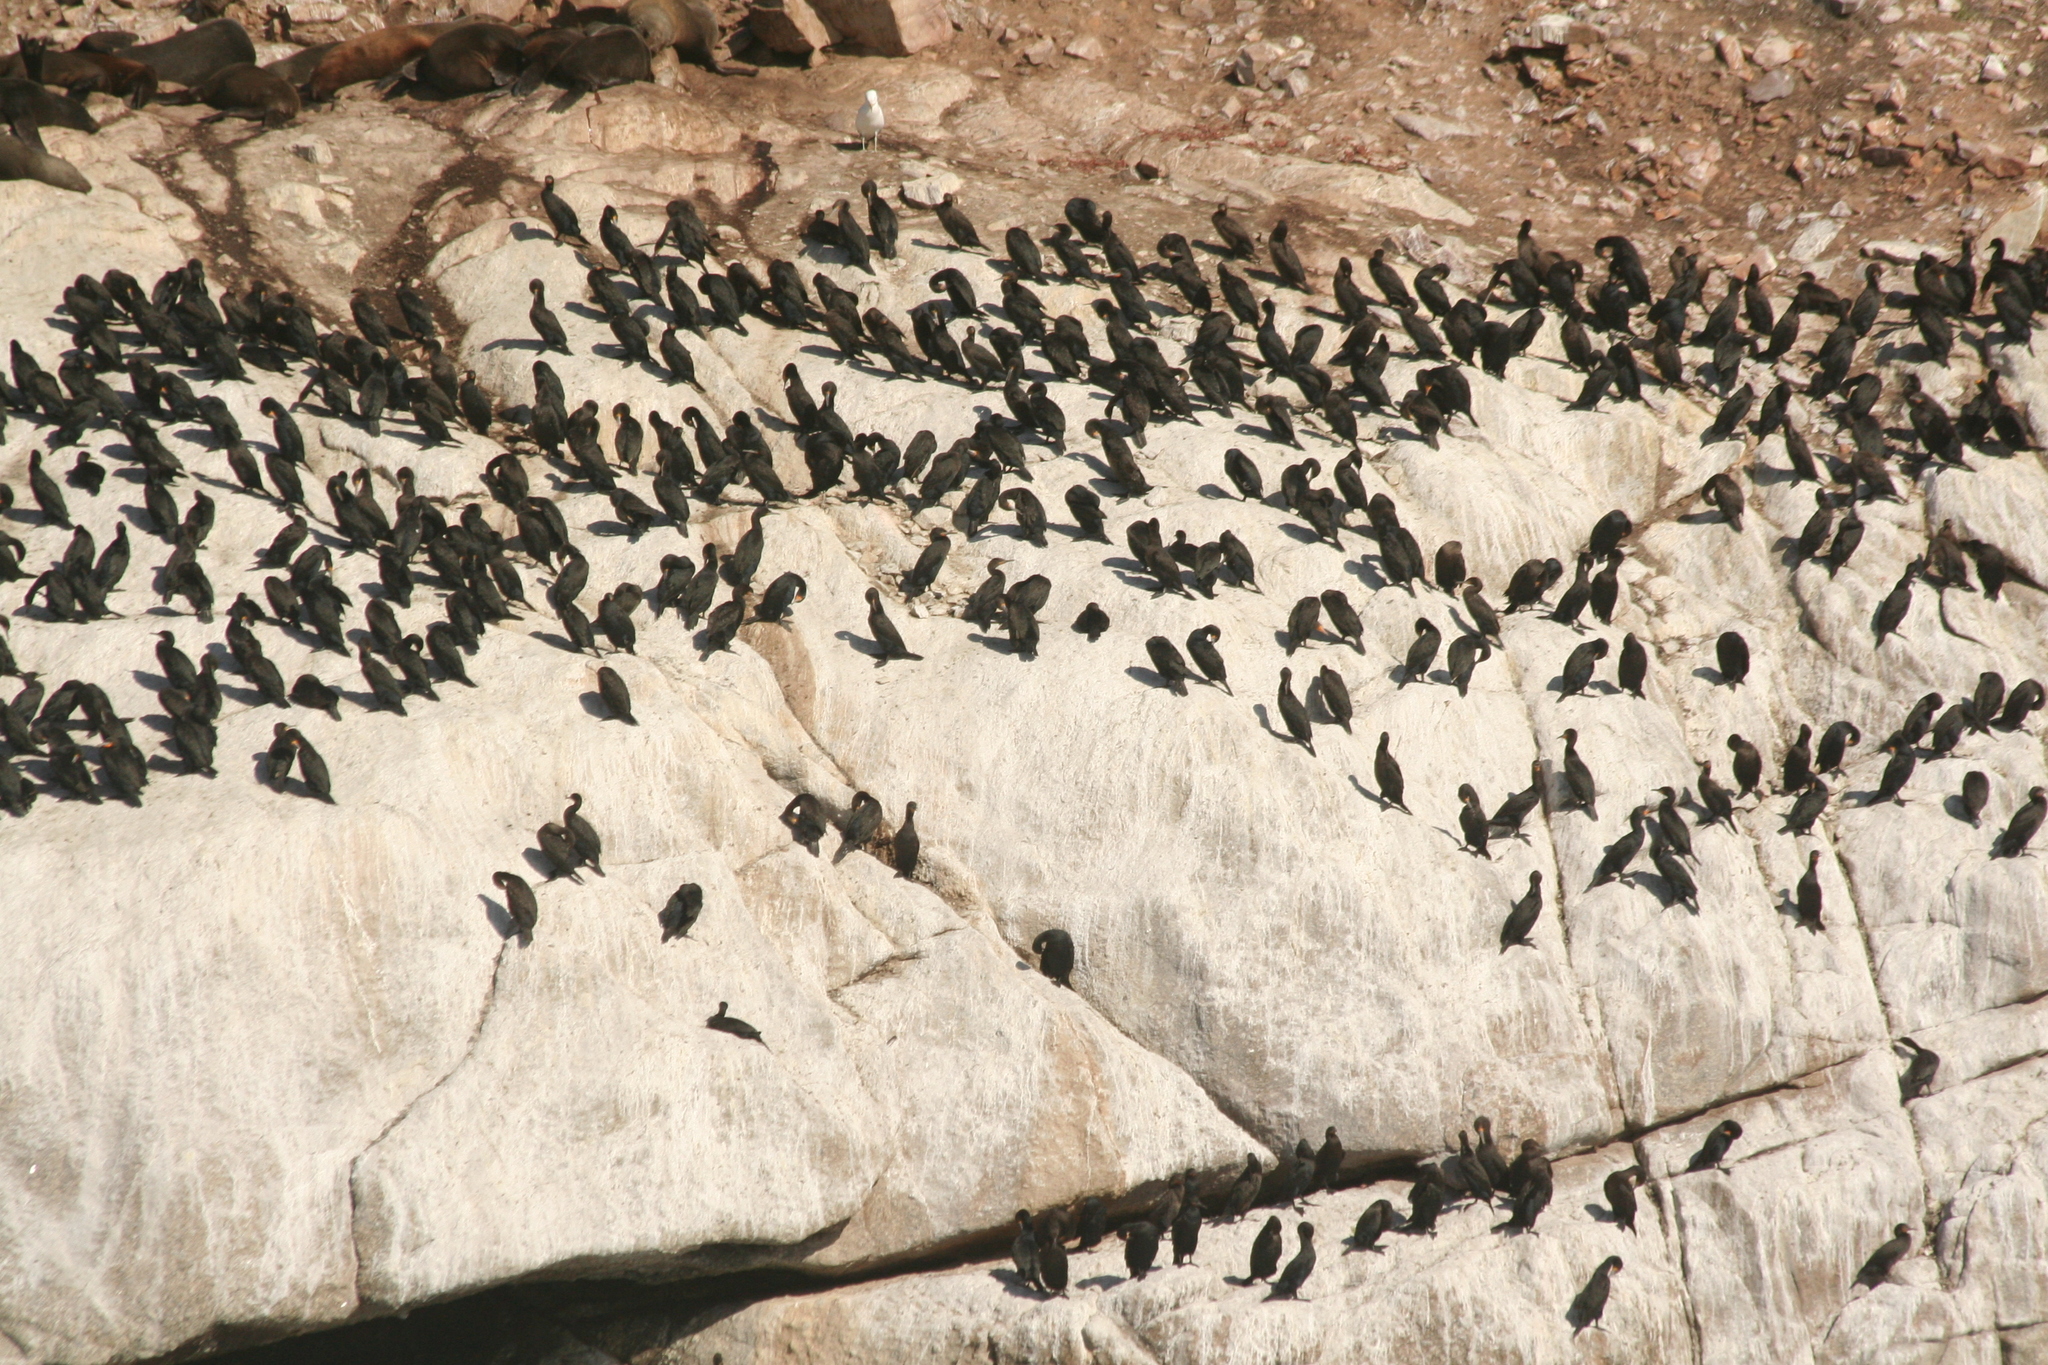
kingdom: Animalia
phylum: Chordata
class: Aves
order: Suliformes
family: Phalacrocoracidae
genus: Phalacrocorax
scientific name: Phalacrocorax capensis
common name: Cape cormorant
